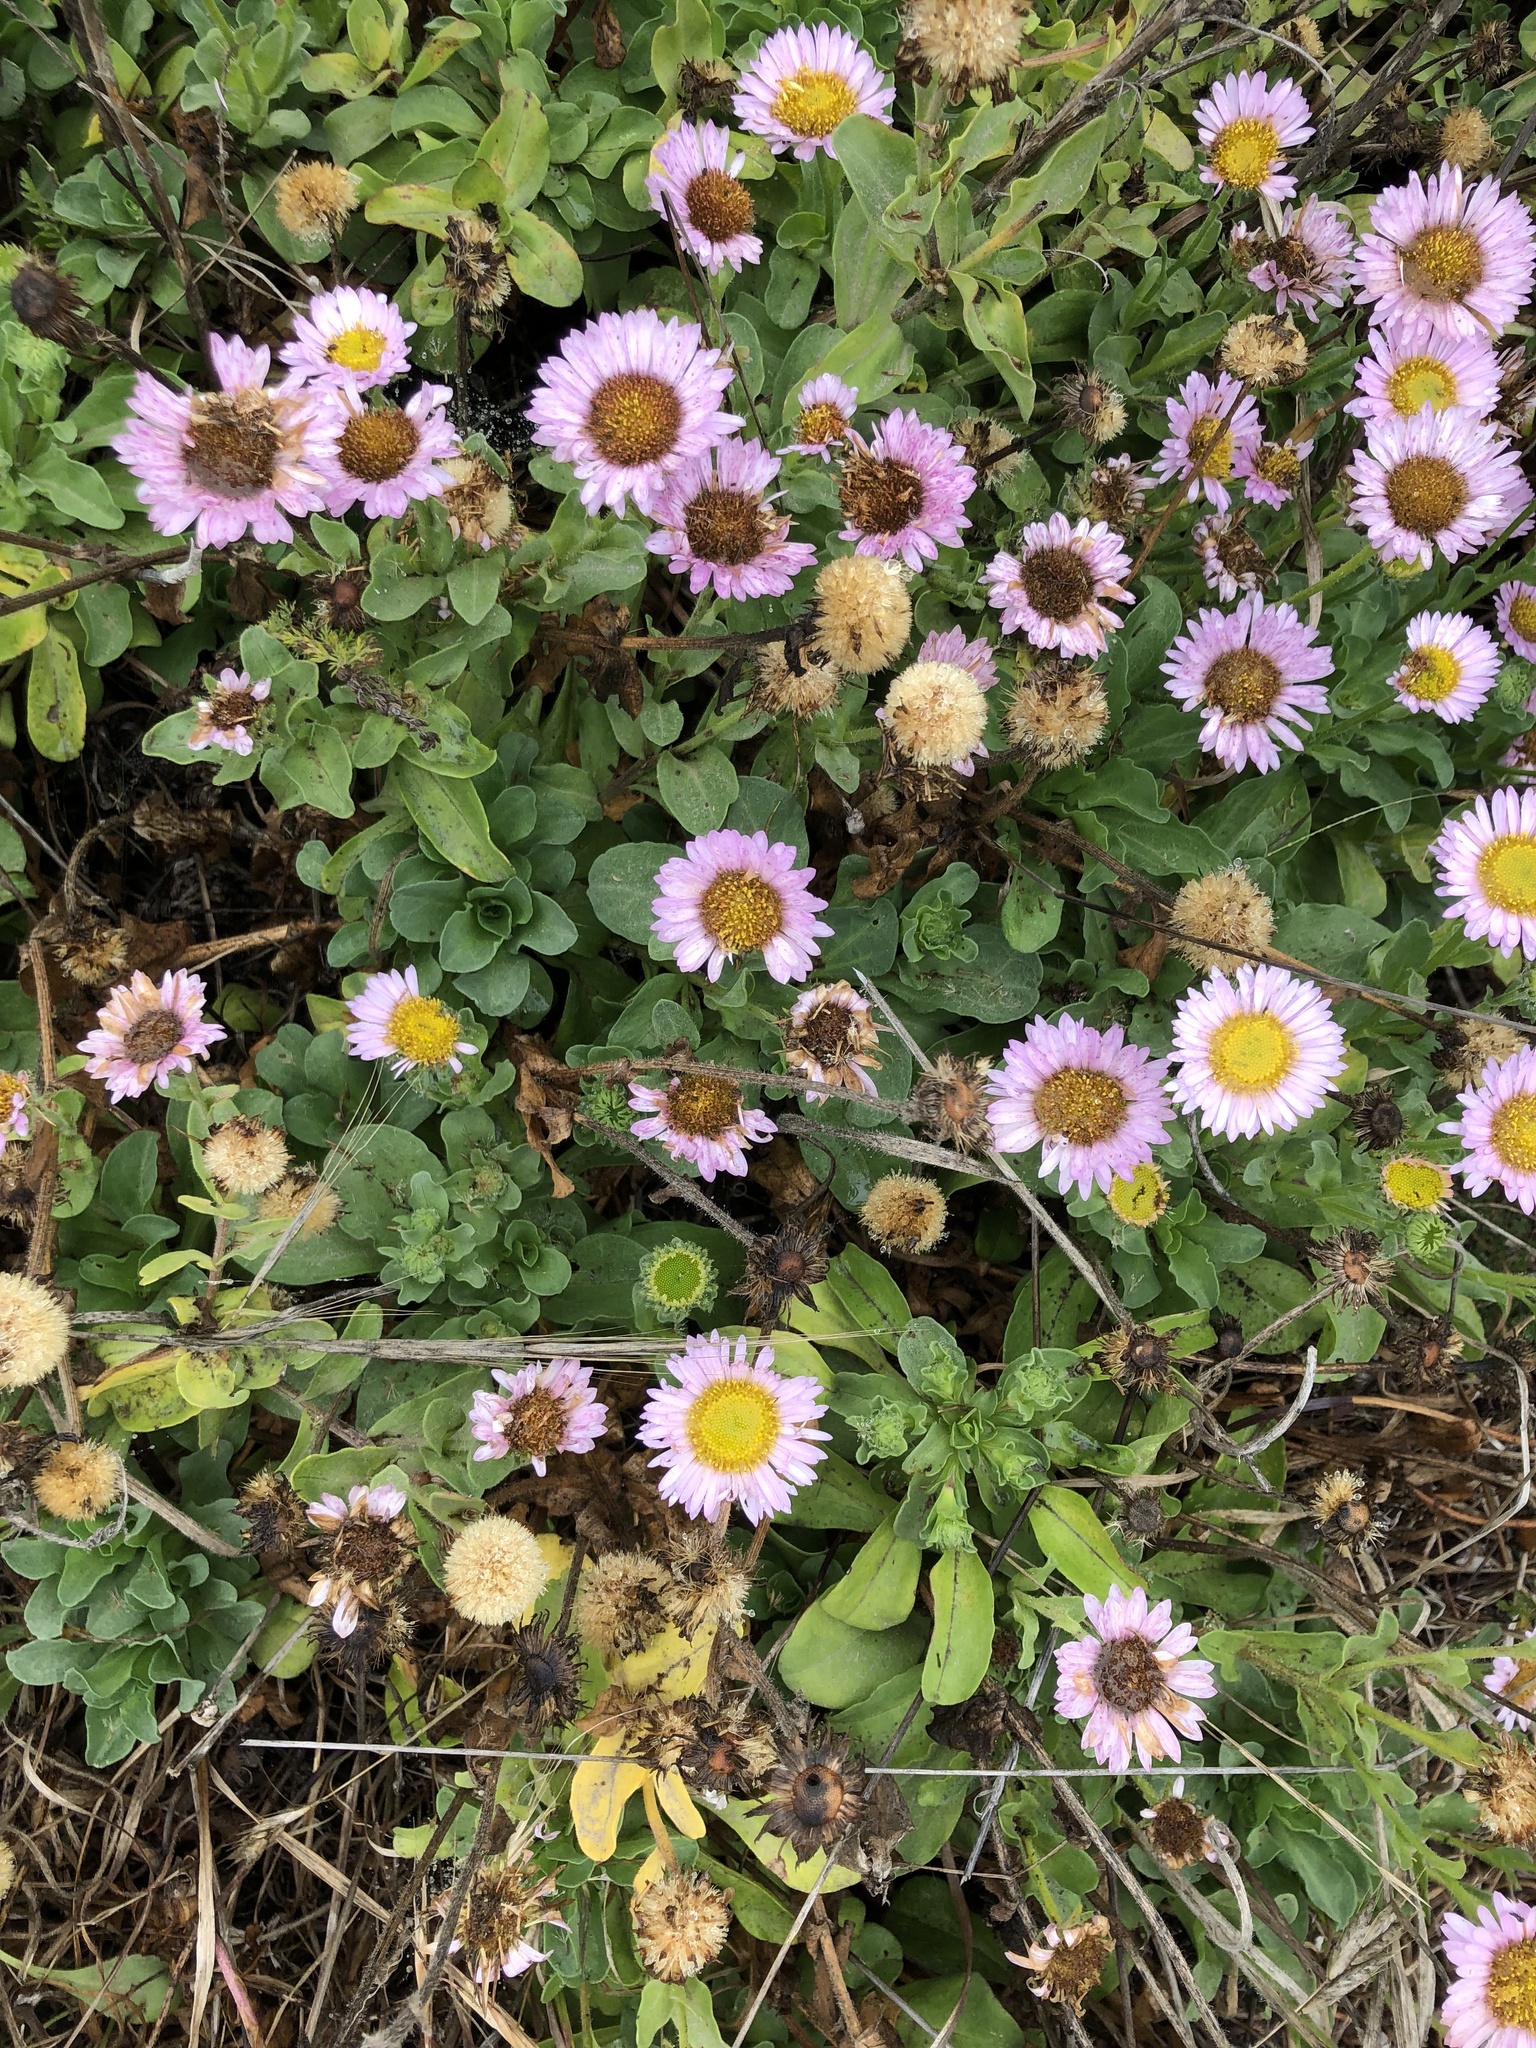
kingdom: Plantae
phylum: Tracheophyta
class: Magnoliopsida
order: Asterales
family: Asteraceae
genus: Erigeron
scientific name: Erigeron glaucus
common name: Seaside daisy
